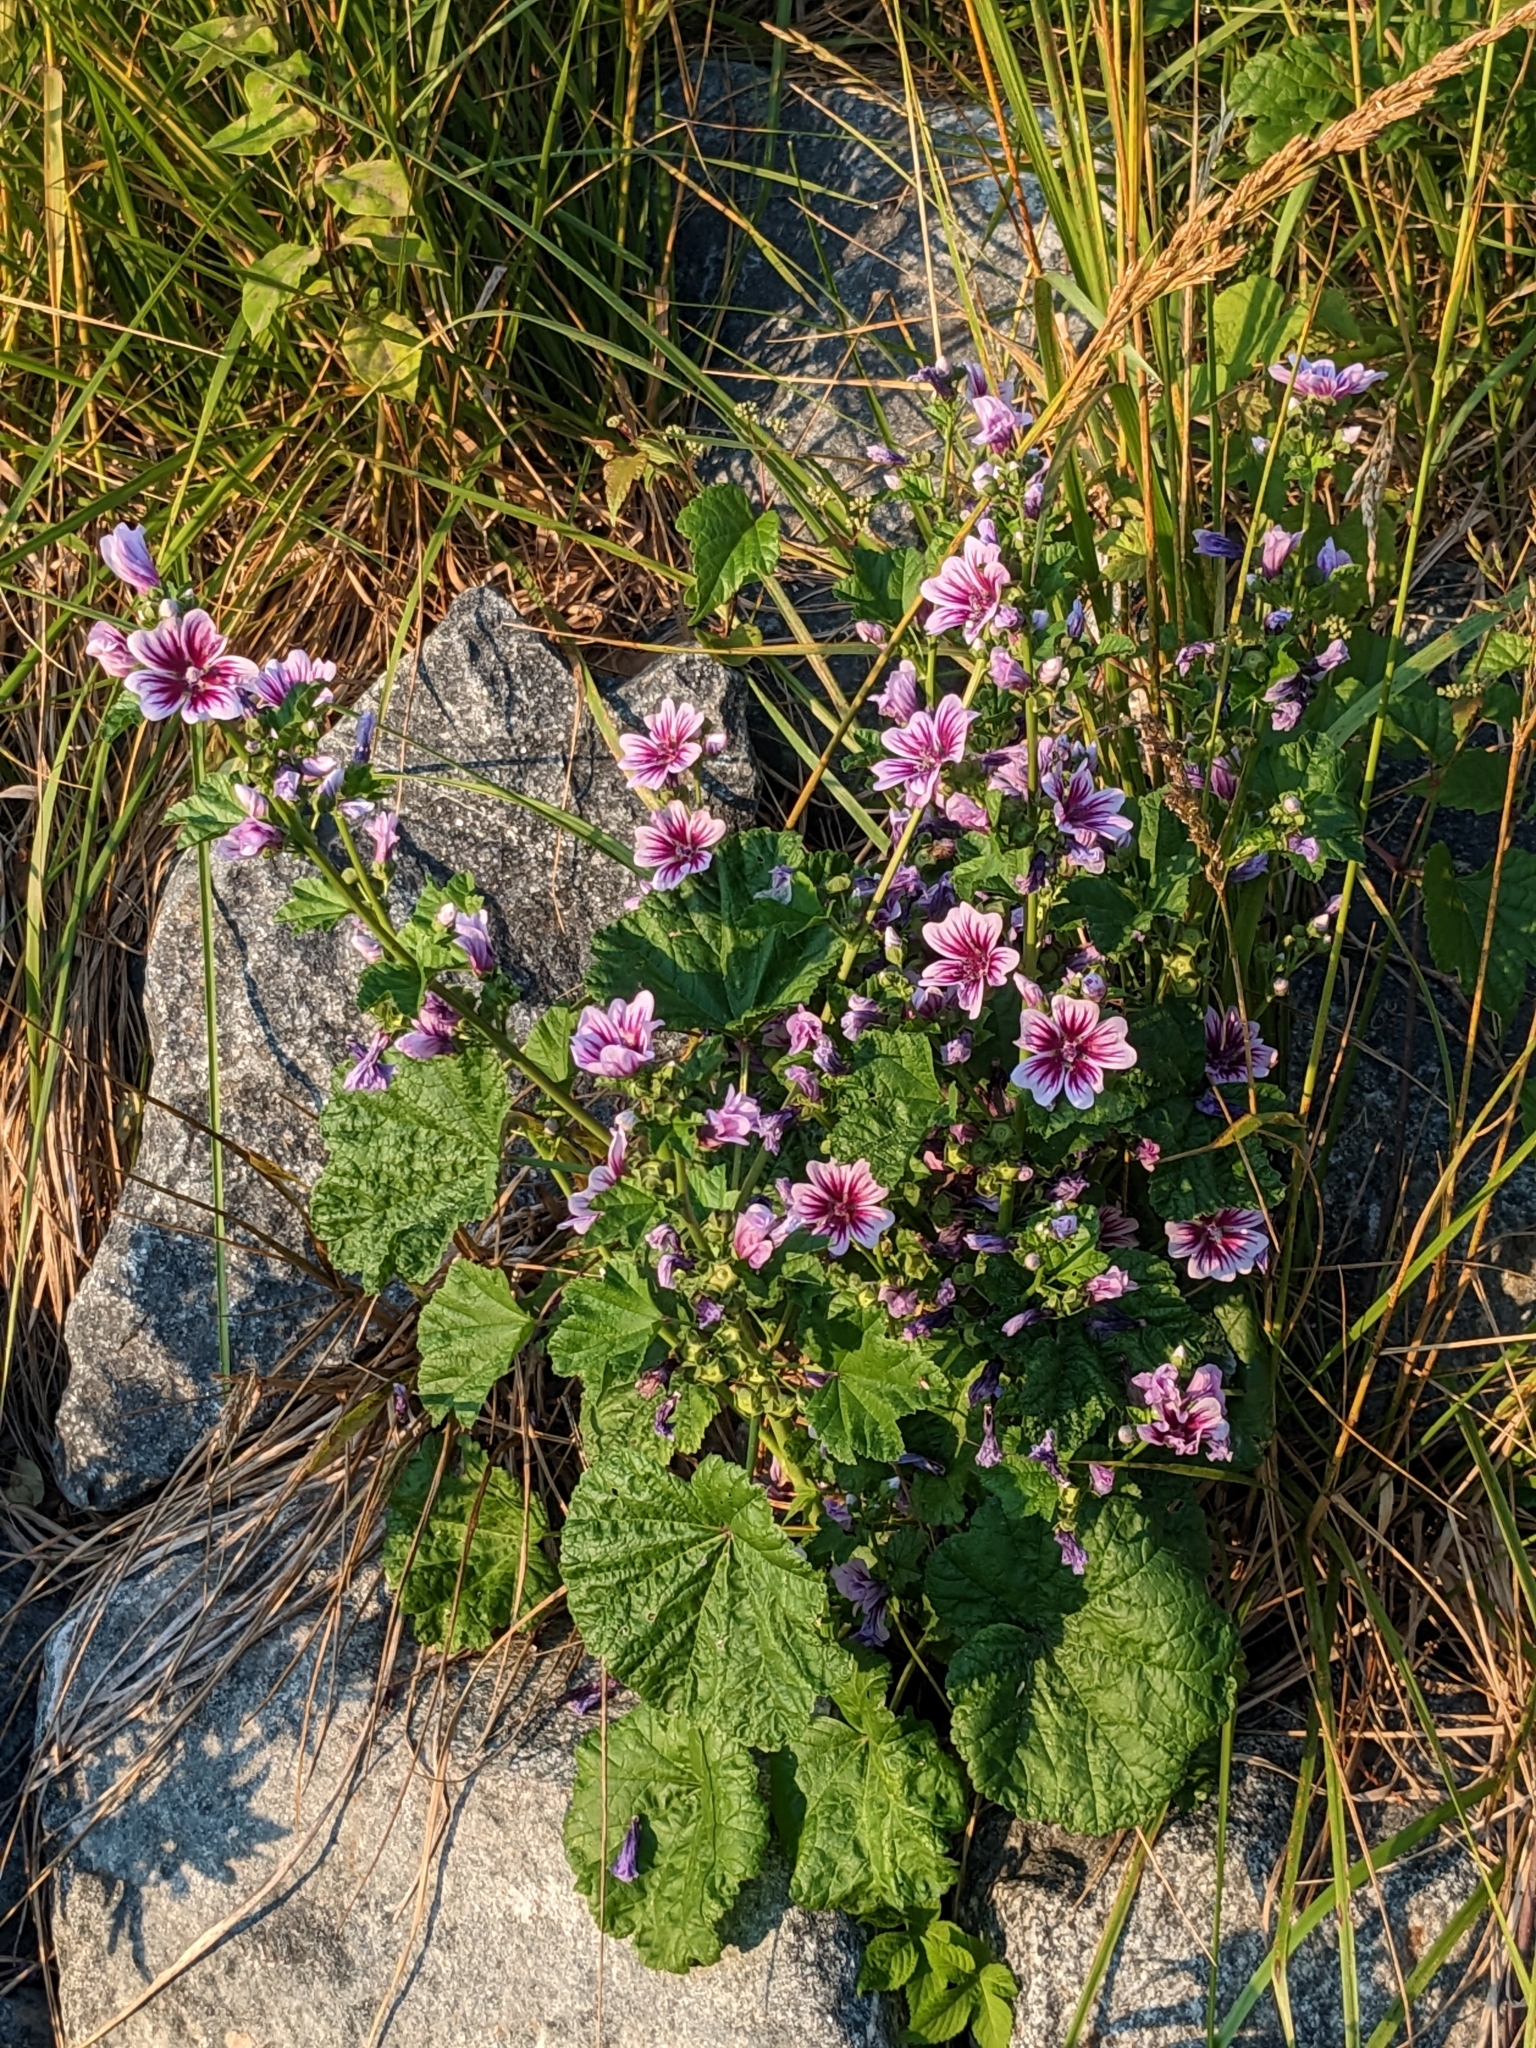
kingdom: Plantae
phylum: Tracheophyta
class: Magnoliopsida
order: Malvales
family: Malvaceae
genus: Malva
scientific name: Malva sylvestris
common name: Common mallow
